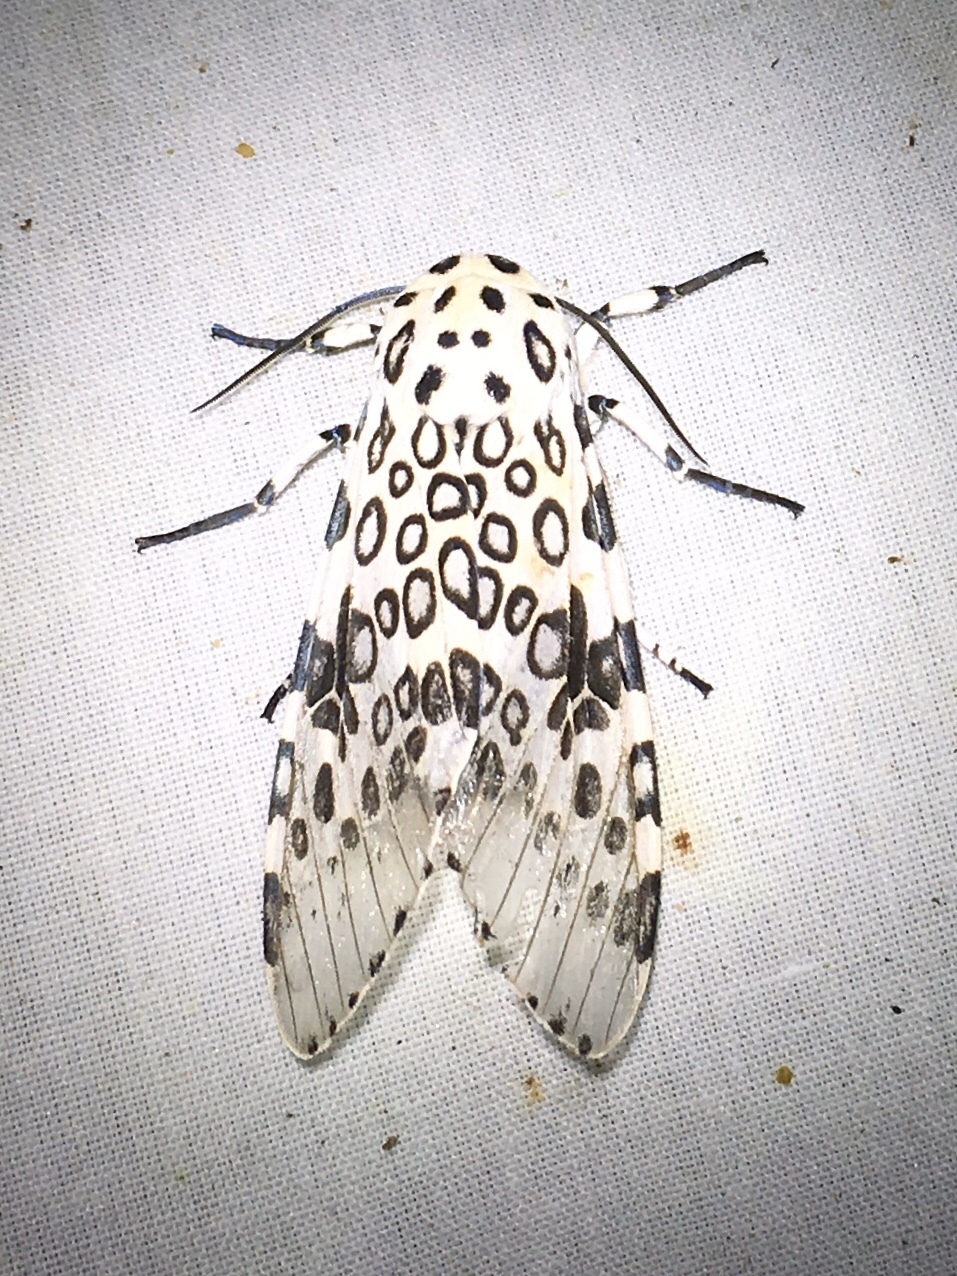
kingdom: Animalia
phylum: Arthropoda
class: Insecta
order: Lepidoptera
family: Erebidae
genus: Hypercompe
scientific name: Hypercompe scribonia
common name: Giant leopard moth
